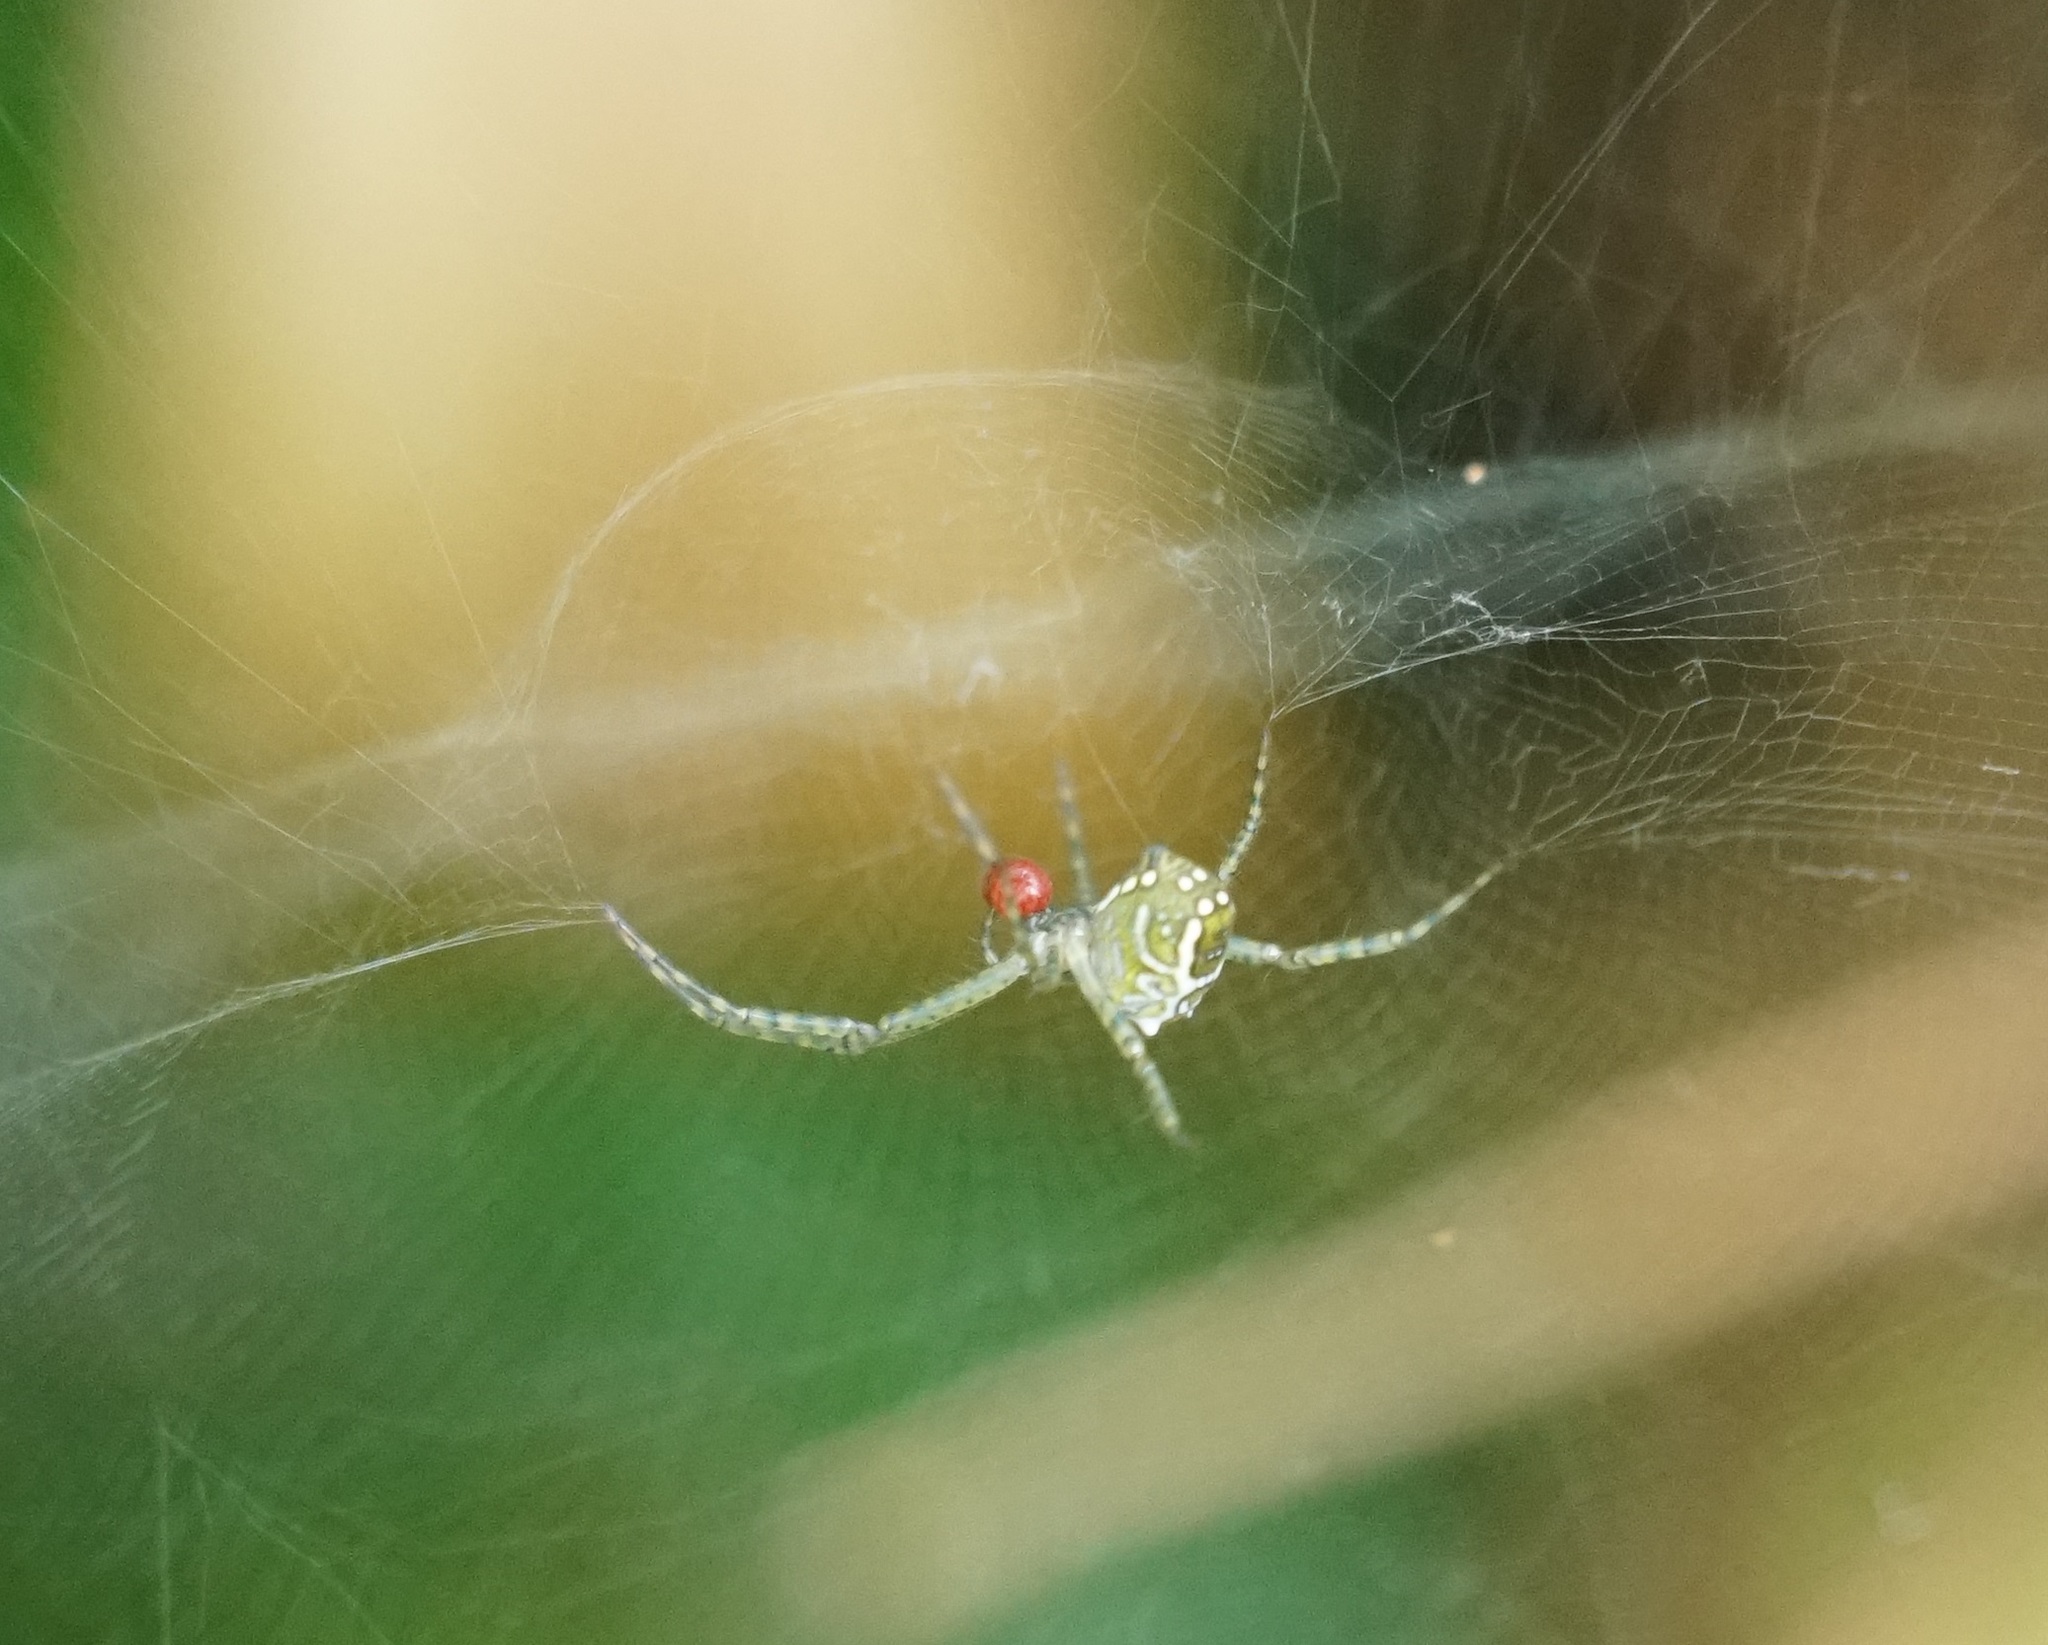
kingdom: Chromista
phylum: Ochrophyta
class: Dictyochophyceae
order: Pedinellales
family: Cyrtophoraceae
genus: Cyrtophora
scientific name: Cyrtophora moluccensis
